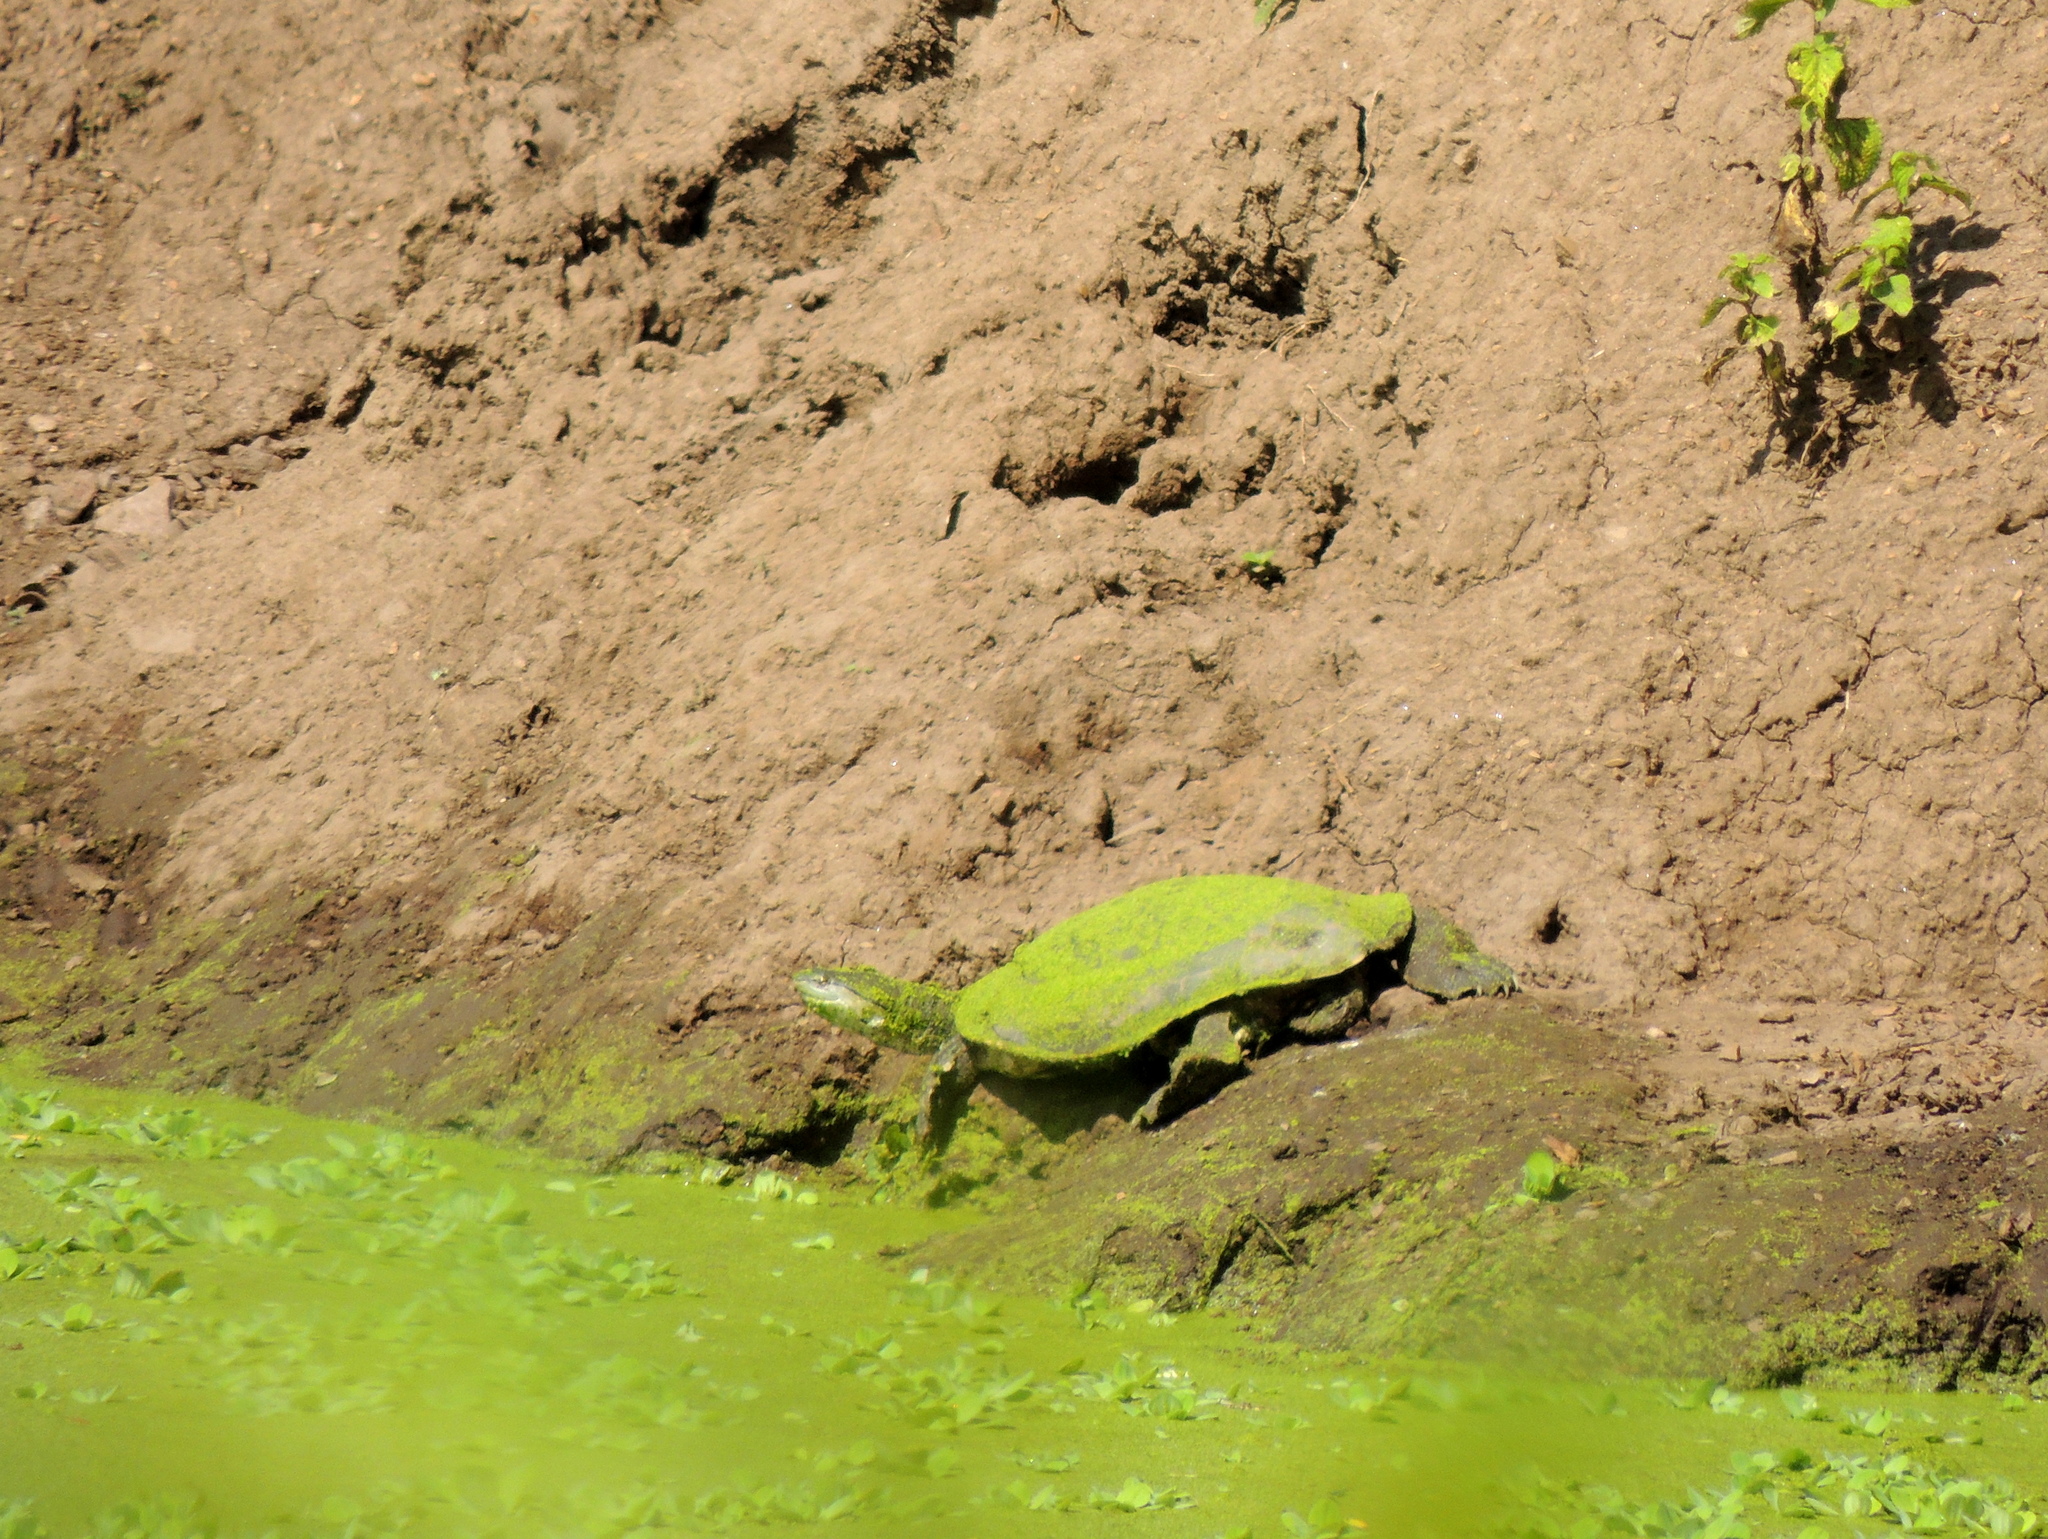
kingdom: Animalia
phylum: Chordata
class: Testudines
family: Chelidae
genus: Phrynops
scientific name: Phrynops hilarii
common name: Side-necked turtle of saint hillaire
